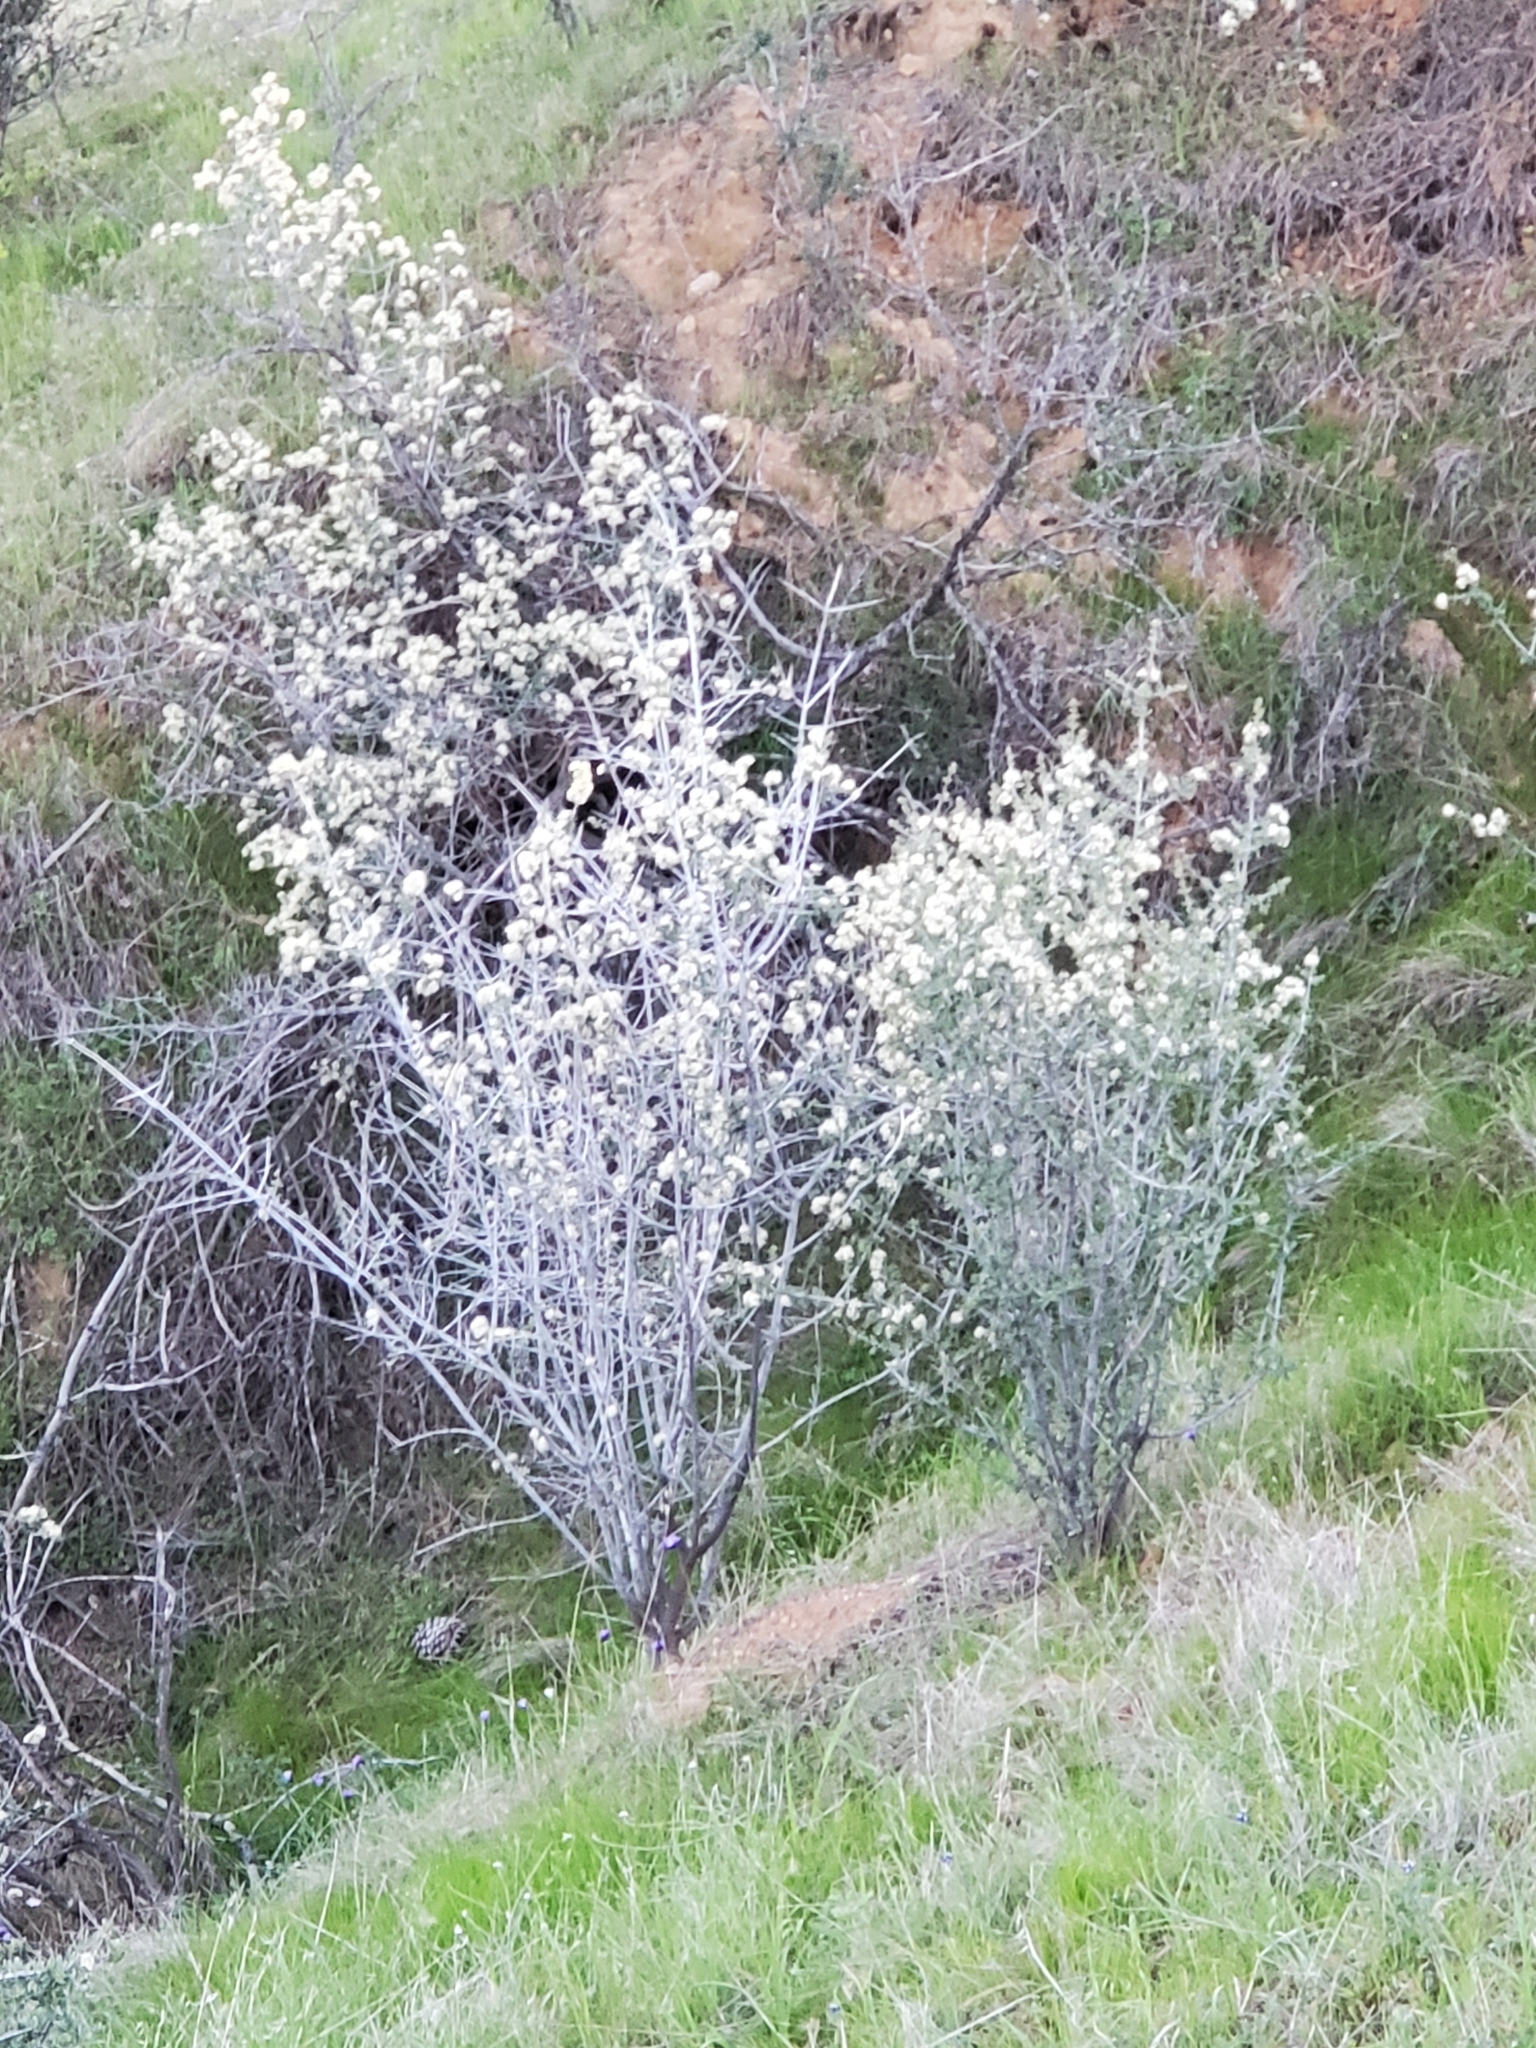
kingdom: Plantae
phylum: Tracheophyta
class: Magnoliopsida
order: Rosales
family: Rhamnaceae
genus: Ceanothus
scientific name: Ceanothus cuneatus
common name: Cuneate ceanothus
